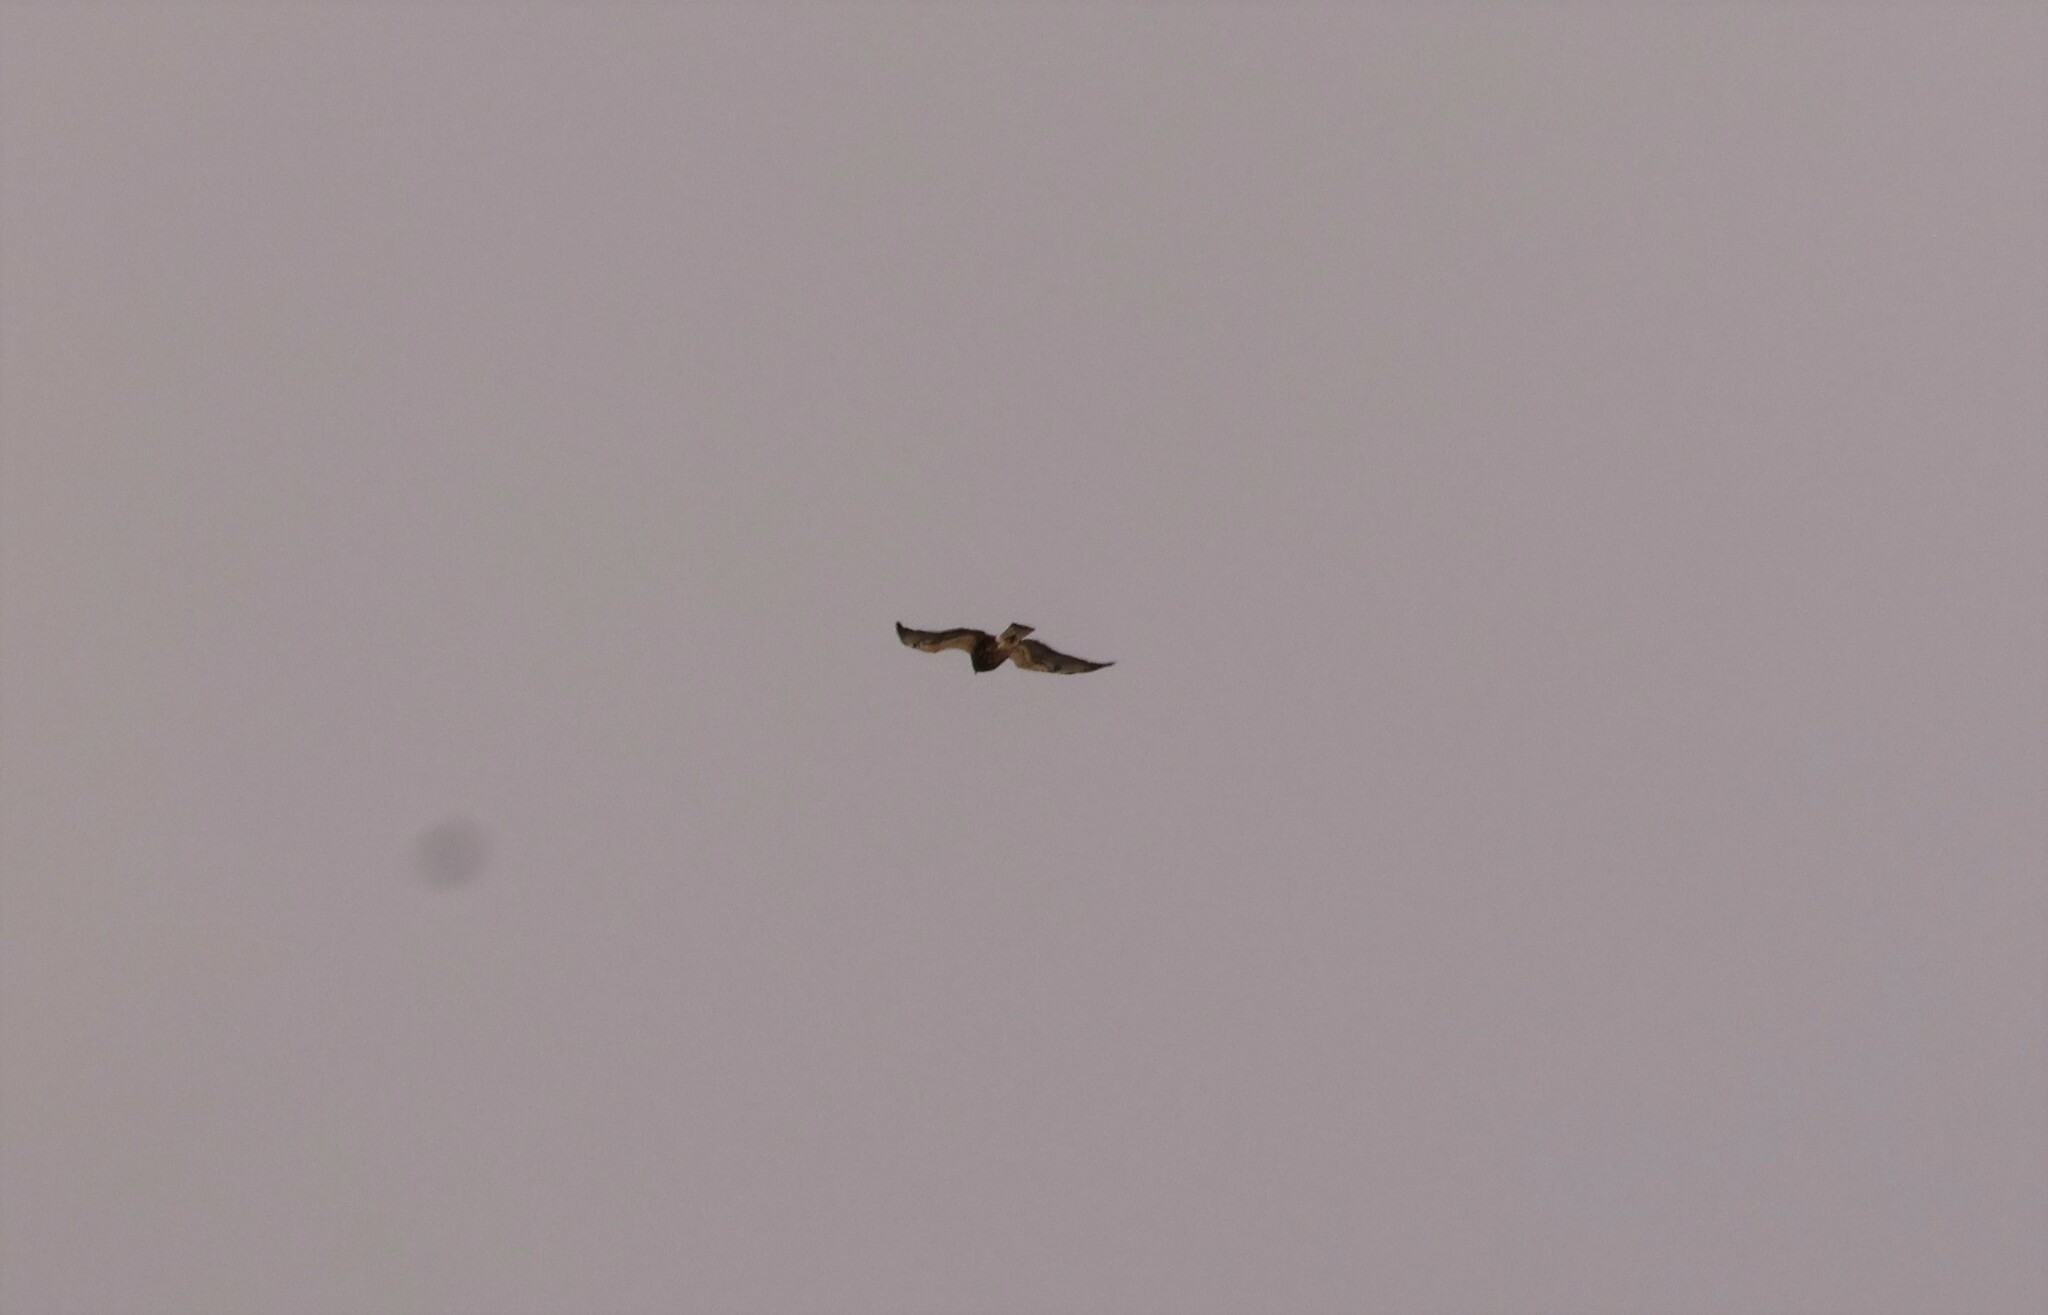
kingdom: Animalia
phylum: Chordata
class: Aves
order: Accipitriformes
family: Accipitridae
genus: Buteo
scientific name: Buteo swainsoni
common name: Swainson's hawk
